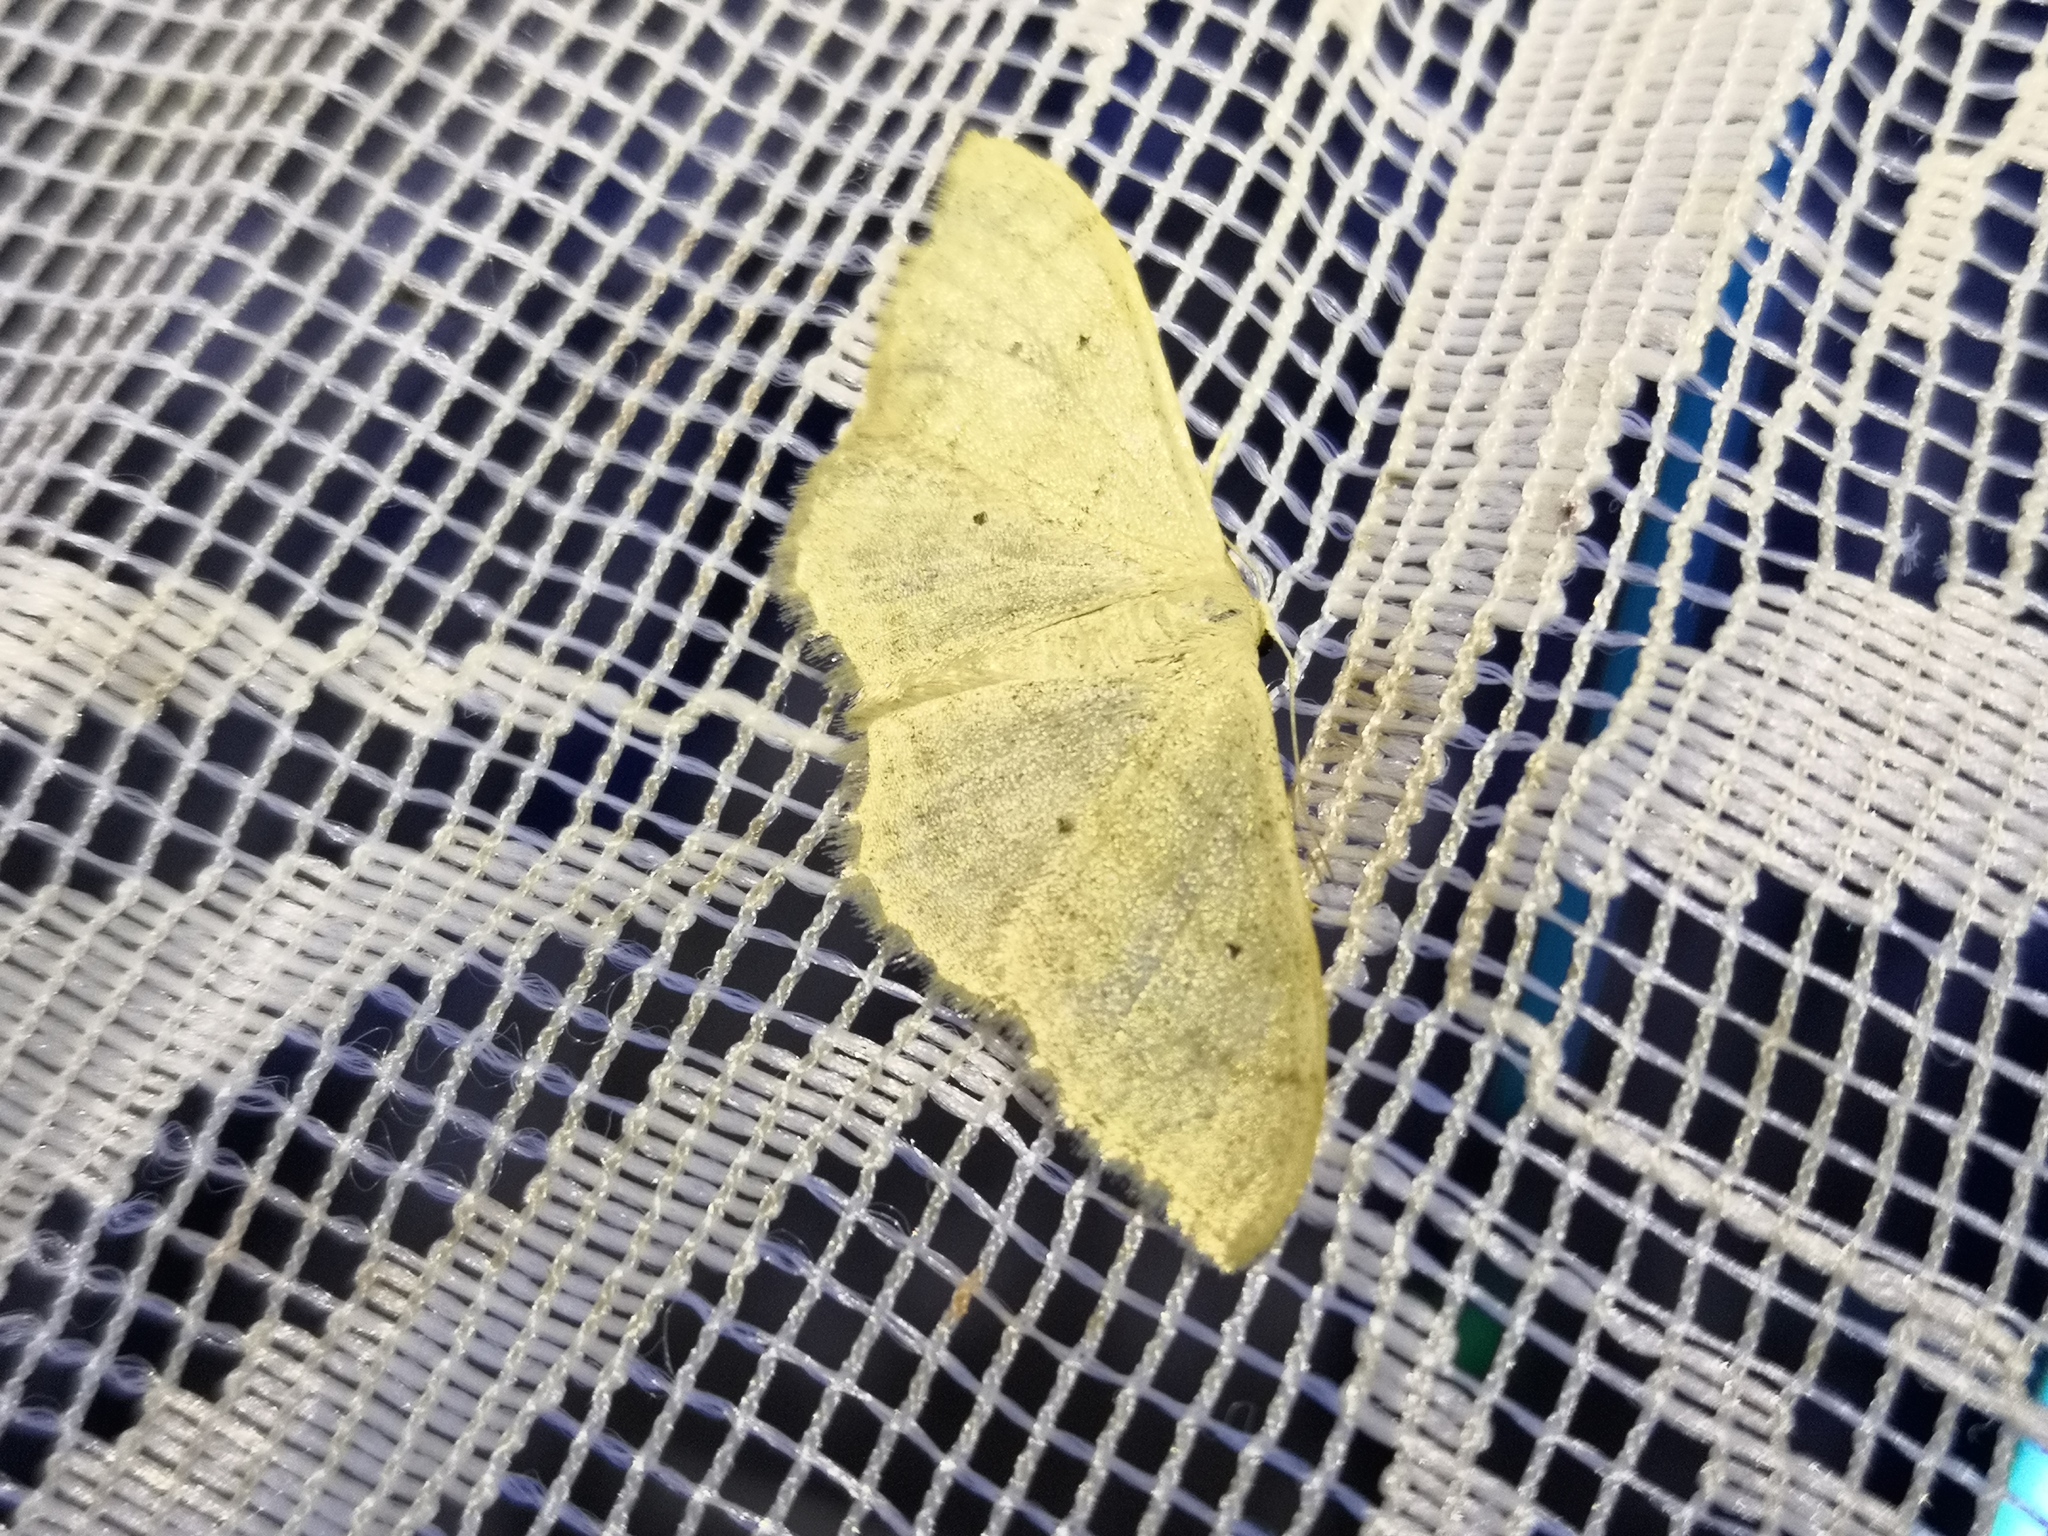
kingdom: Animalia
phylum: Arthropoda
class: Insecta
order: Lepidoptera
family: Geometridae
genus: Idaea
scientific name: Idaea straminata
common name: Plain wave
